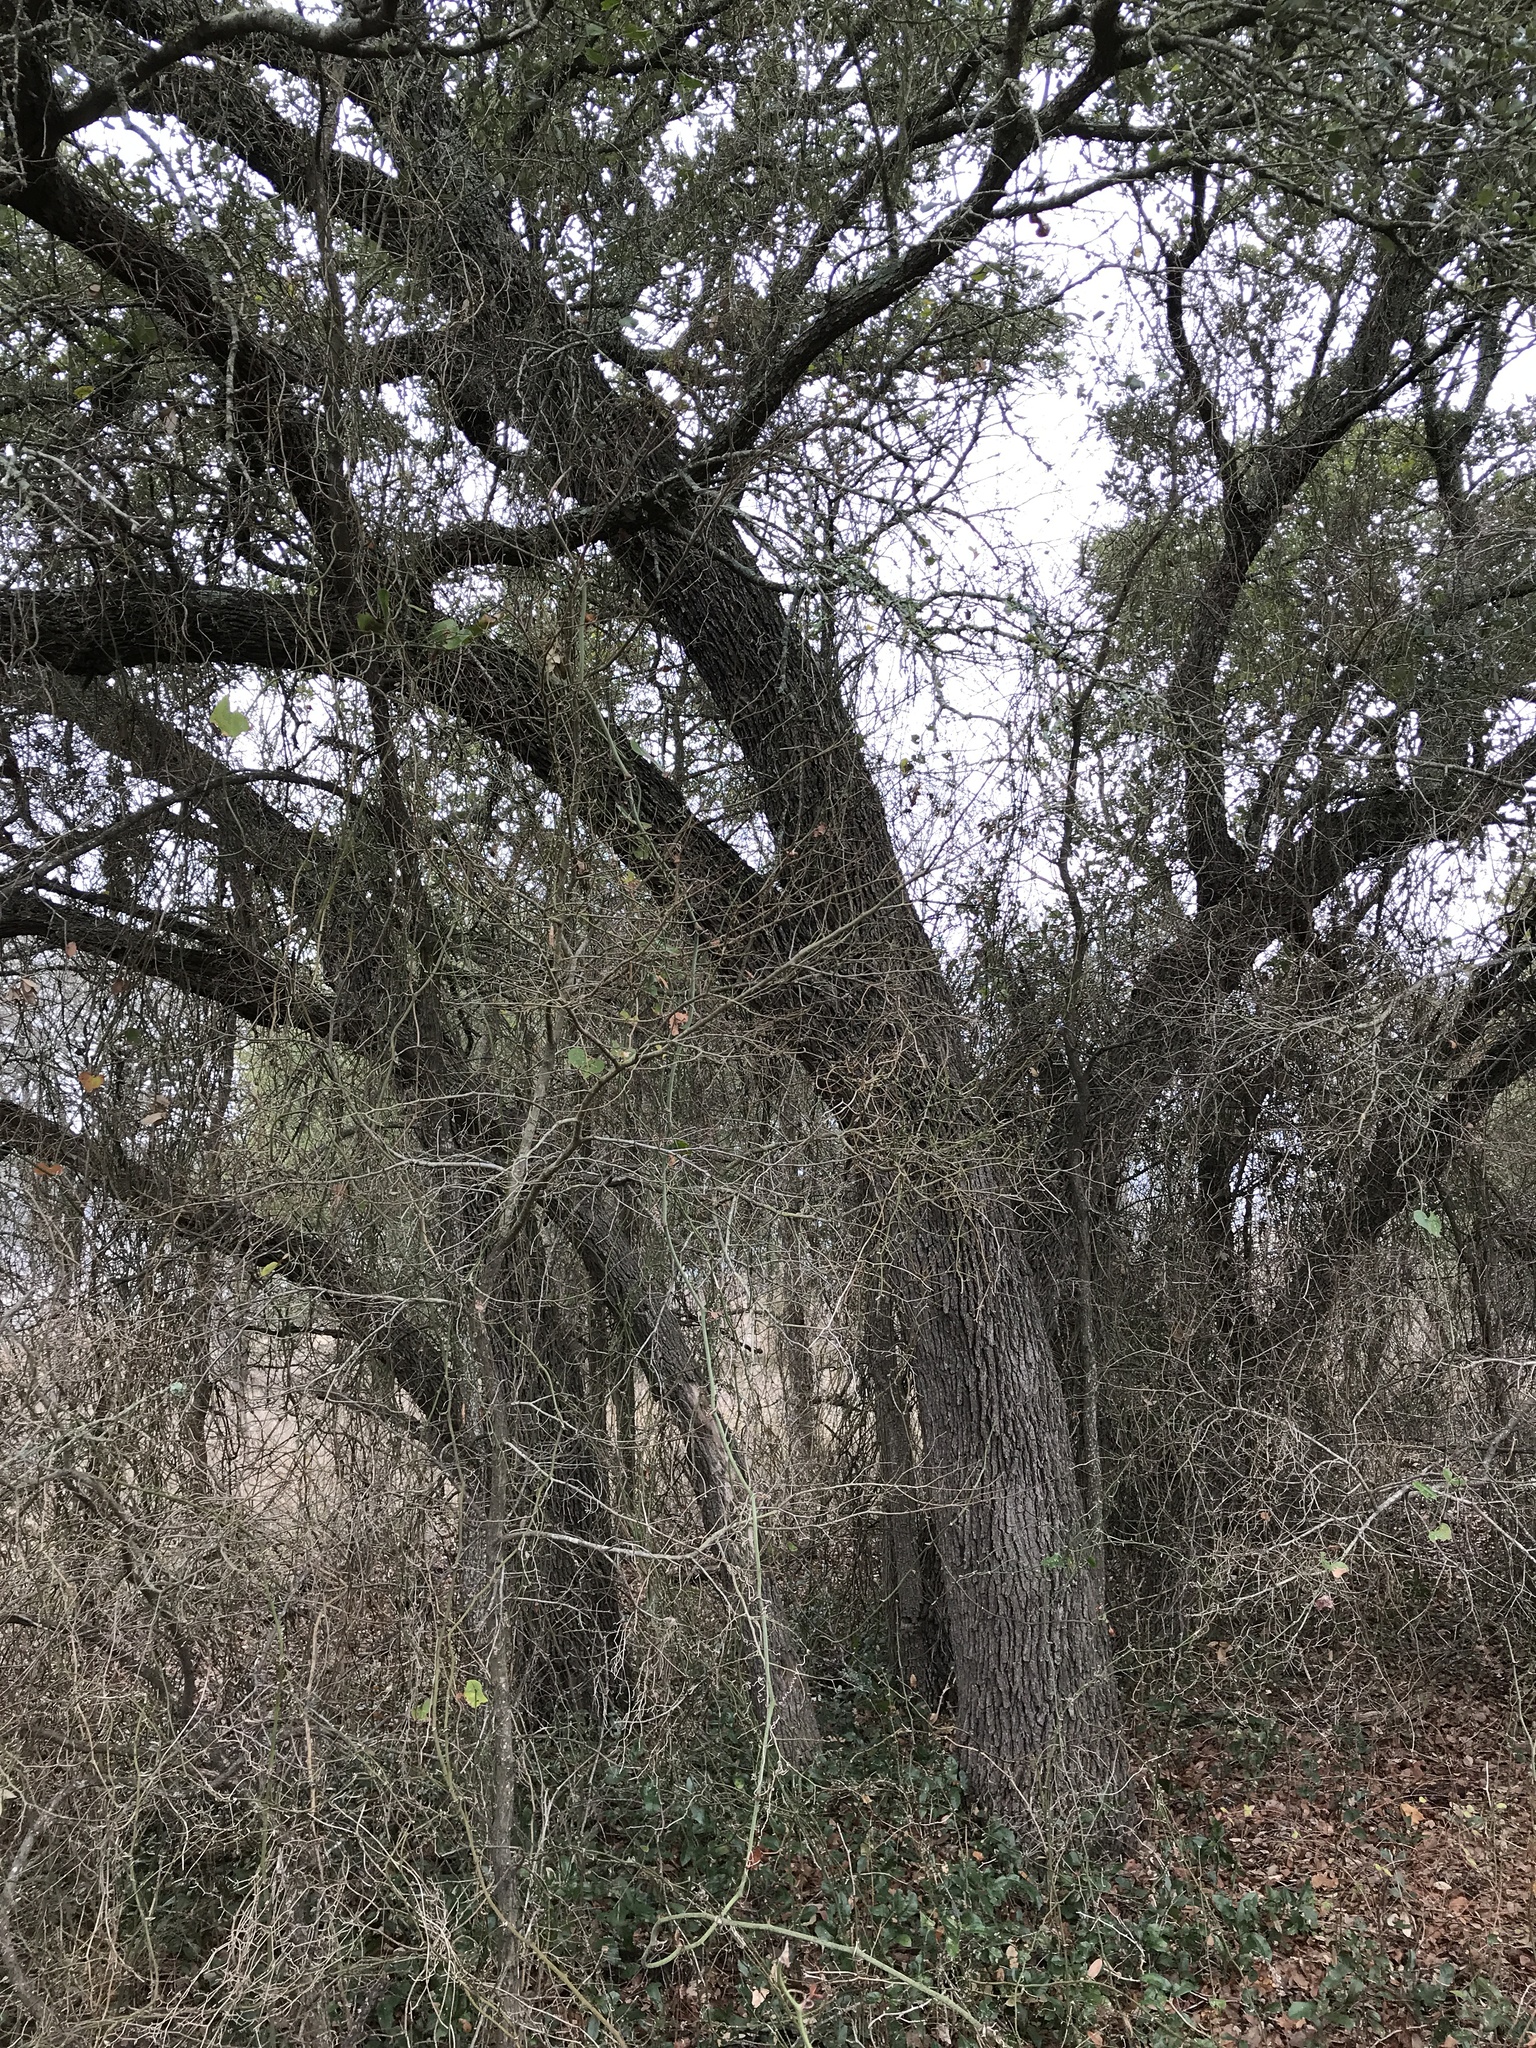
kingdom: Plantae
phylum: Tracheophyta
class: Magnoliopsida
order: Fagales
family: Fagaceae
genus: Quercus
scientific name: Quercus fusiformis
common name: Texas live oak
